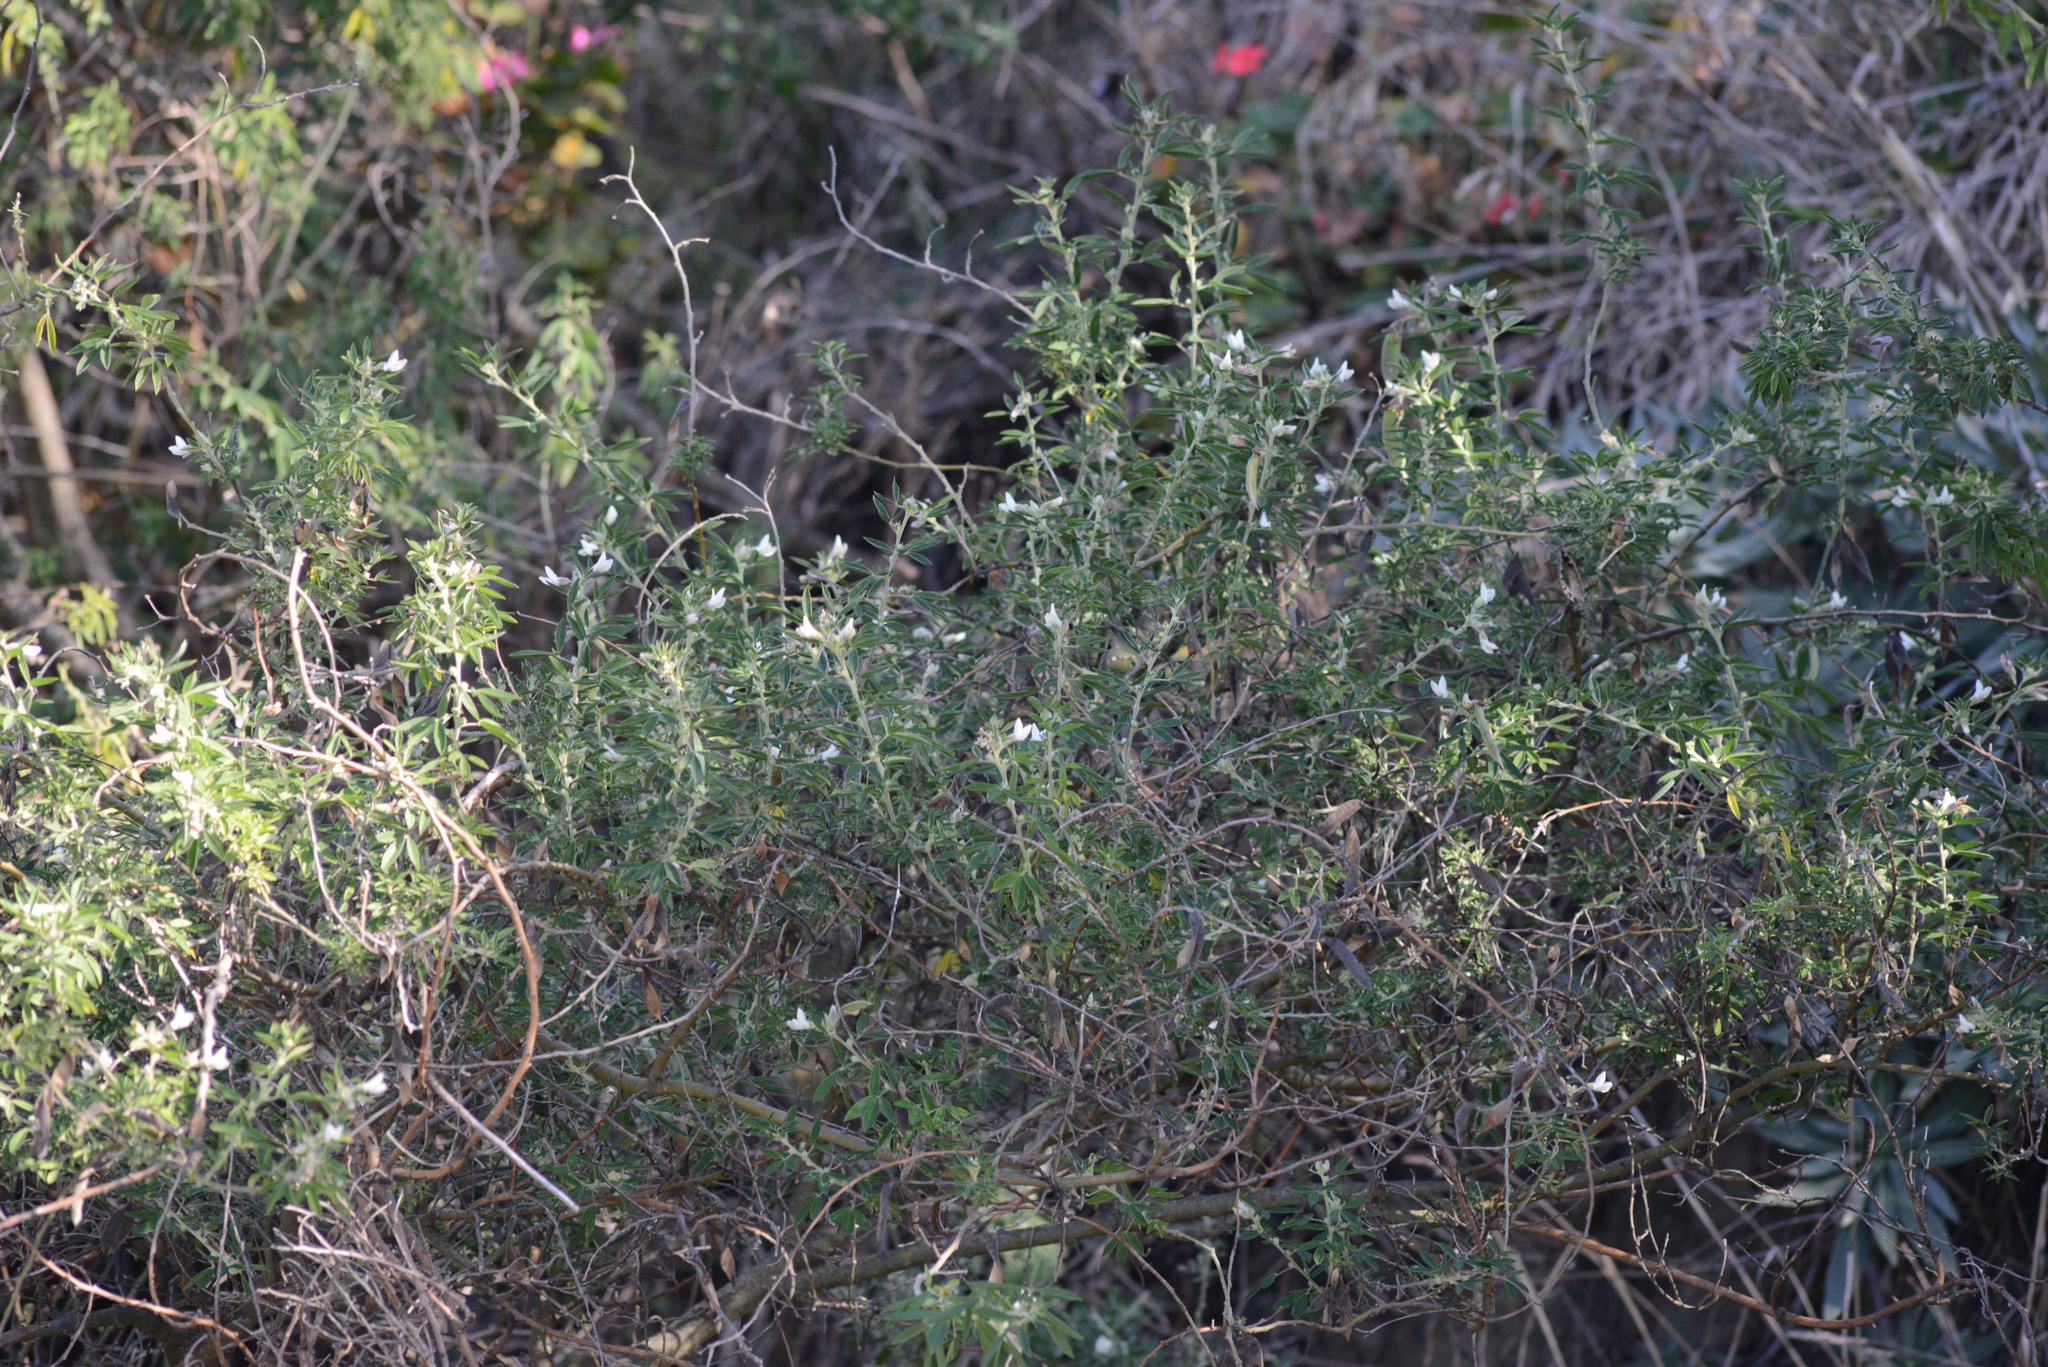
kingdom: Plantae
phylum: Tracheophyta
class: Magnoliopsida
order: Fabales
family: Fabaceae
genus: Chamaecytisus
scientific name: Chamaecytisus prolifer
